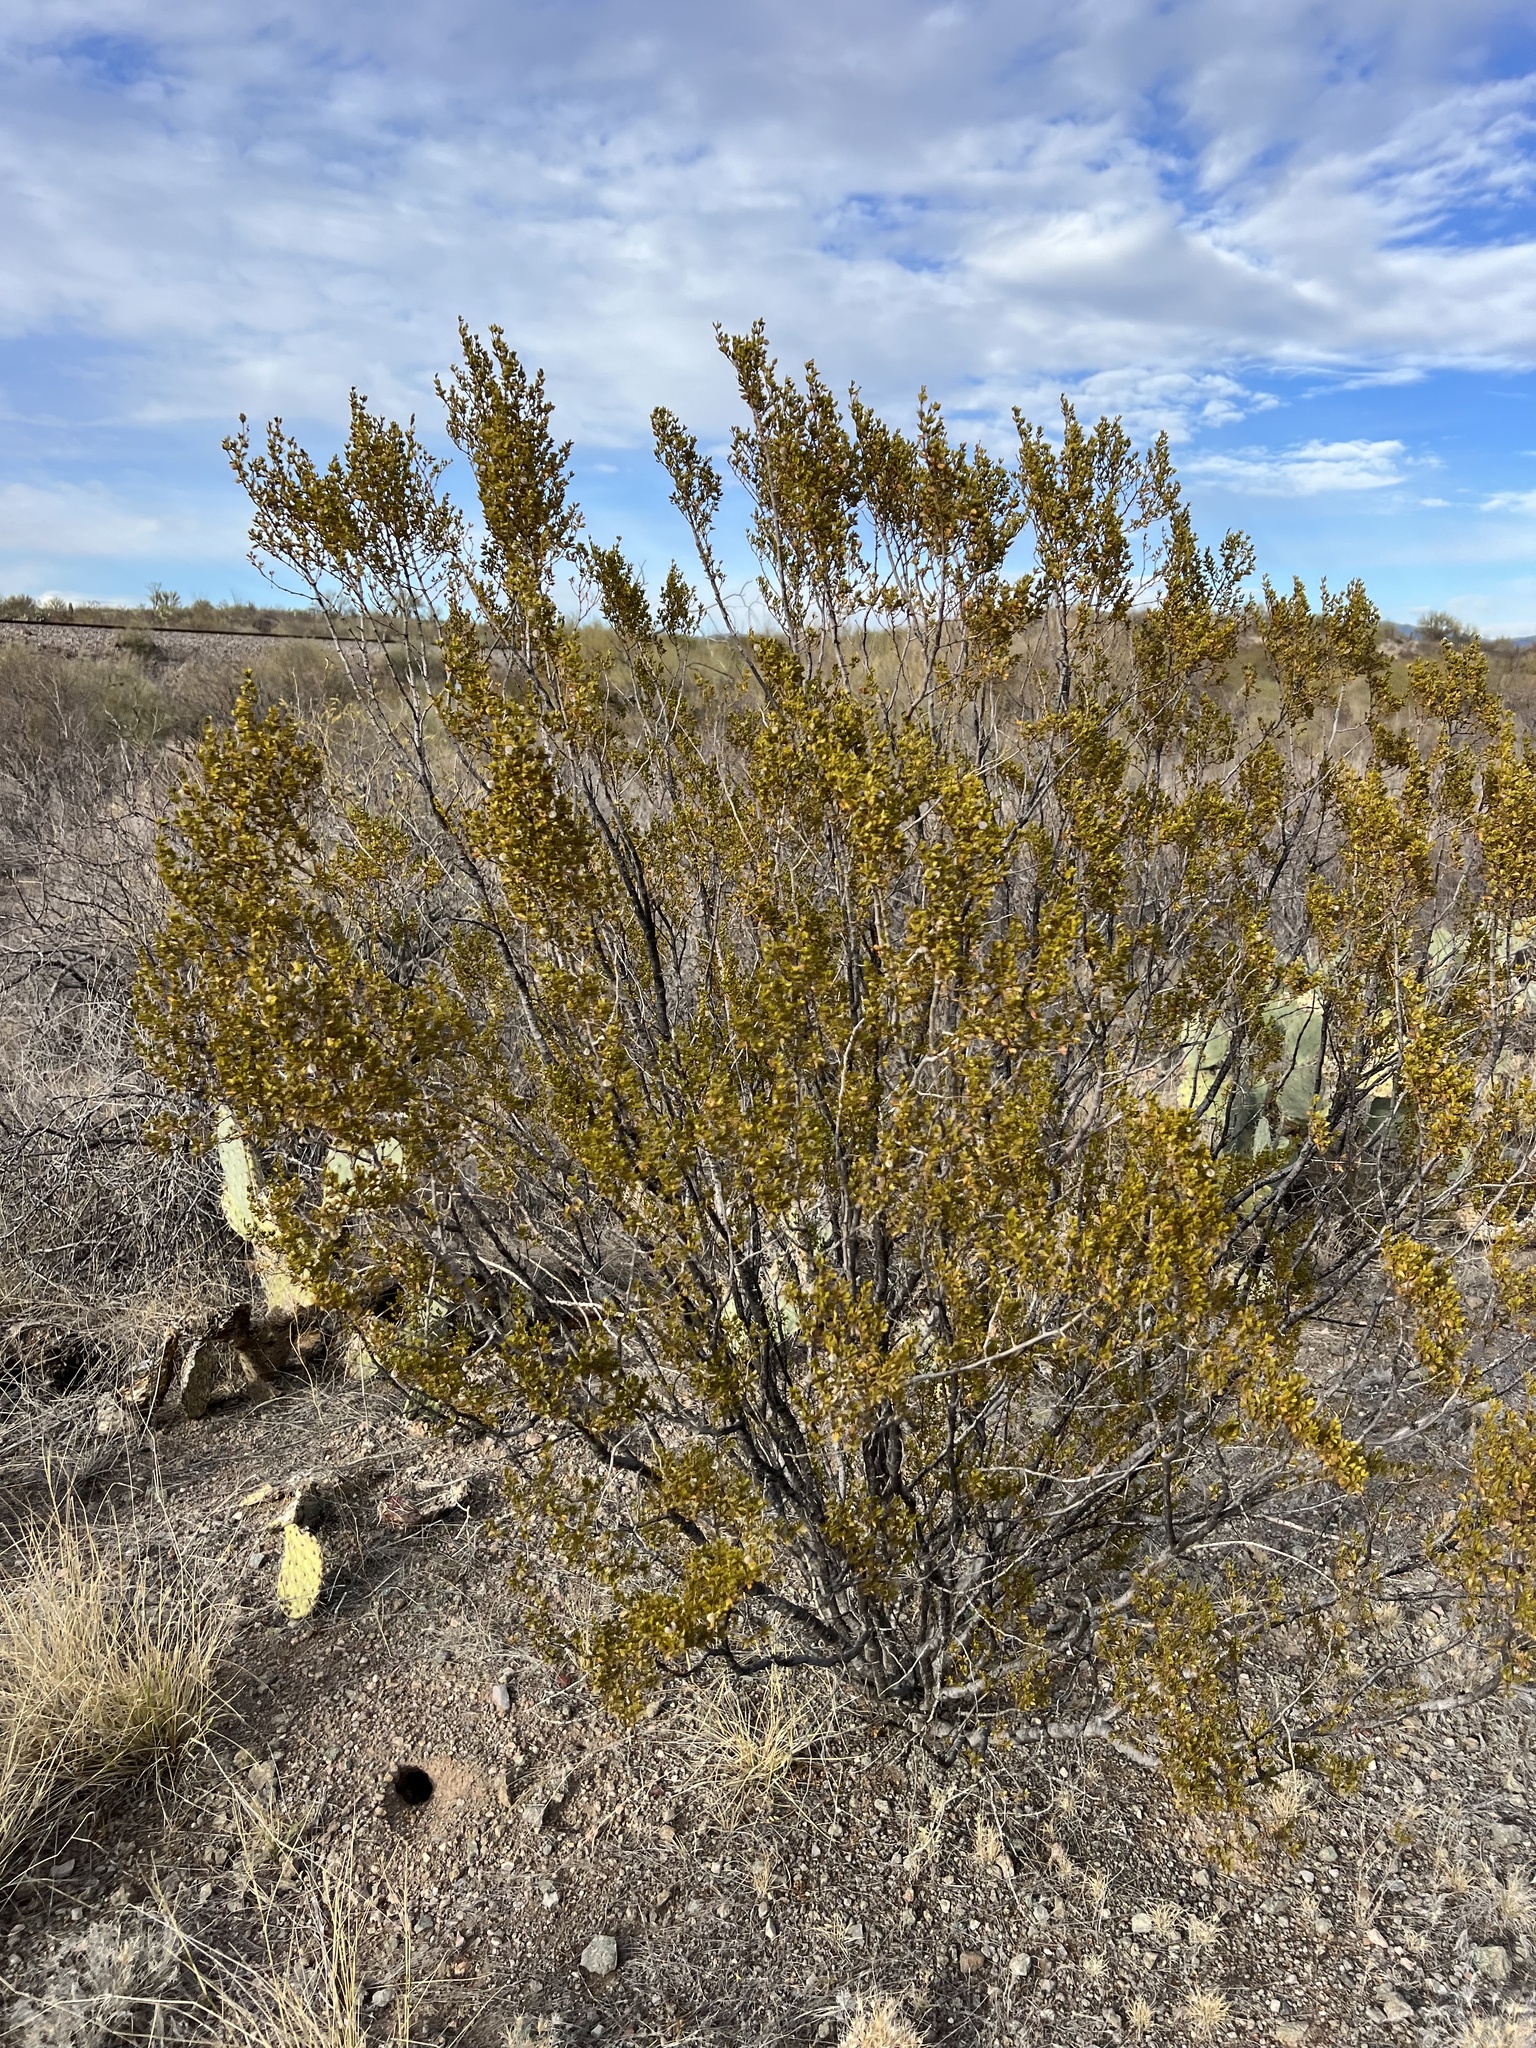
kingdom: Plantae
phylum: Tracheophyta
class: Magnoliopsida
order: Zygophyllales
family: Zygophyllaceae
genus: Larrea
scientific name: Larrea tridentata
